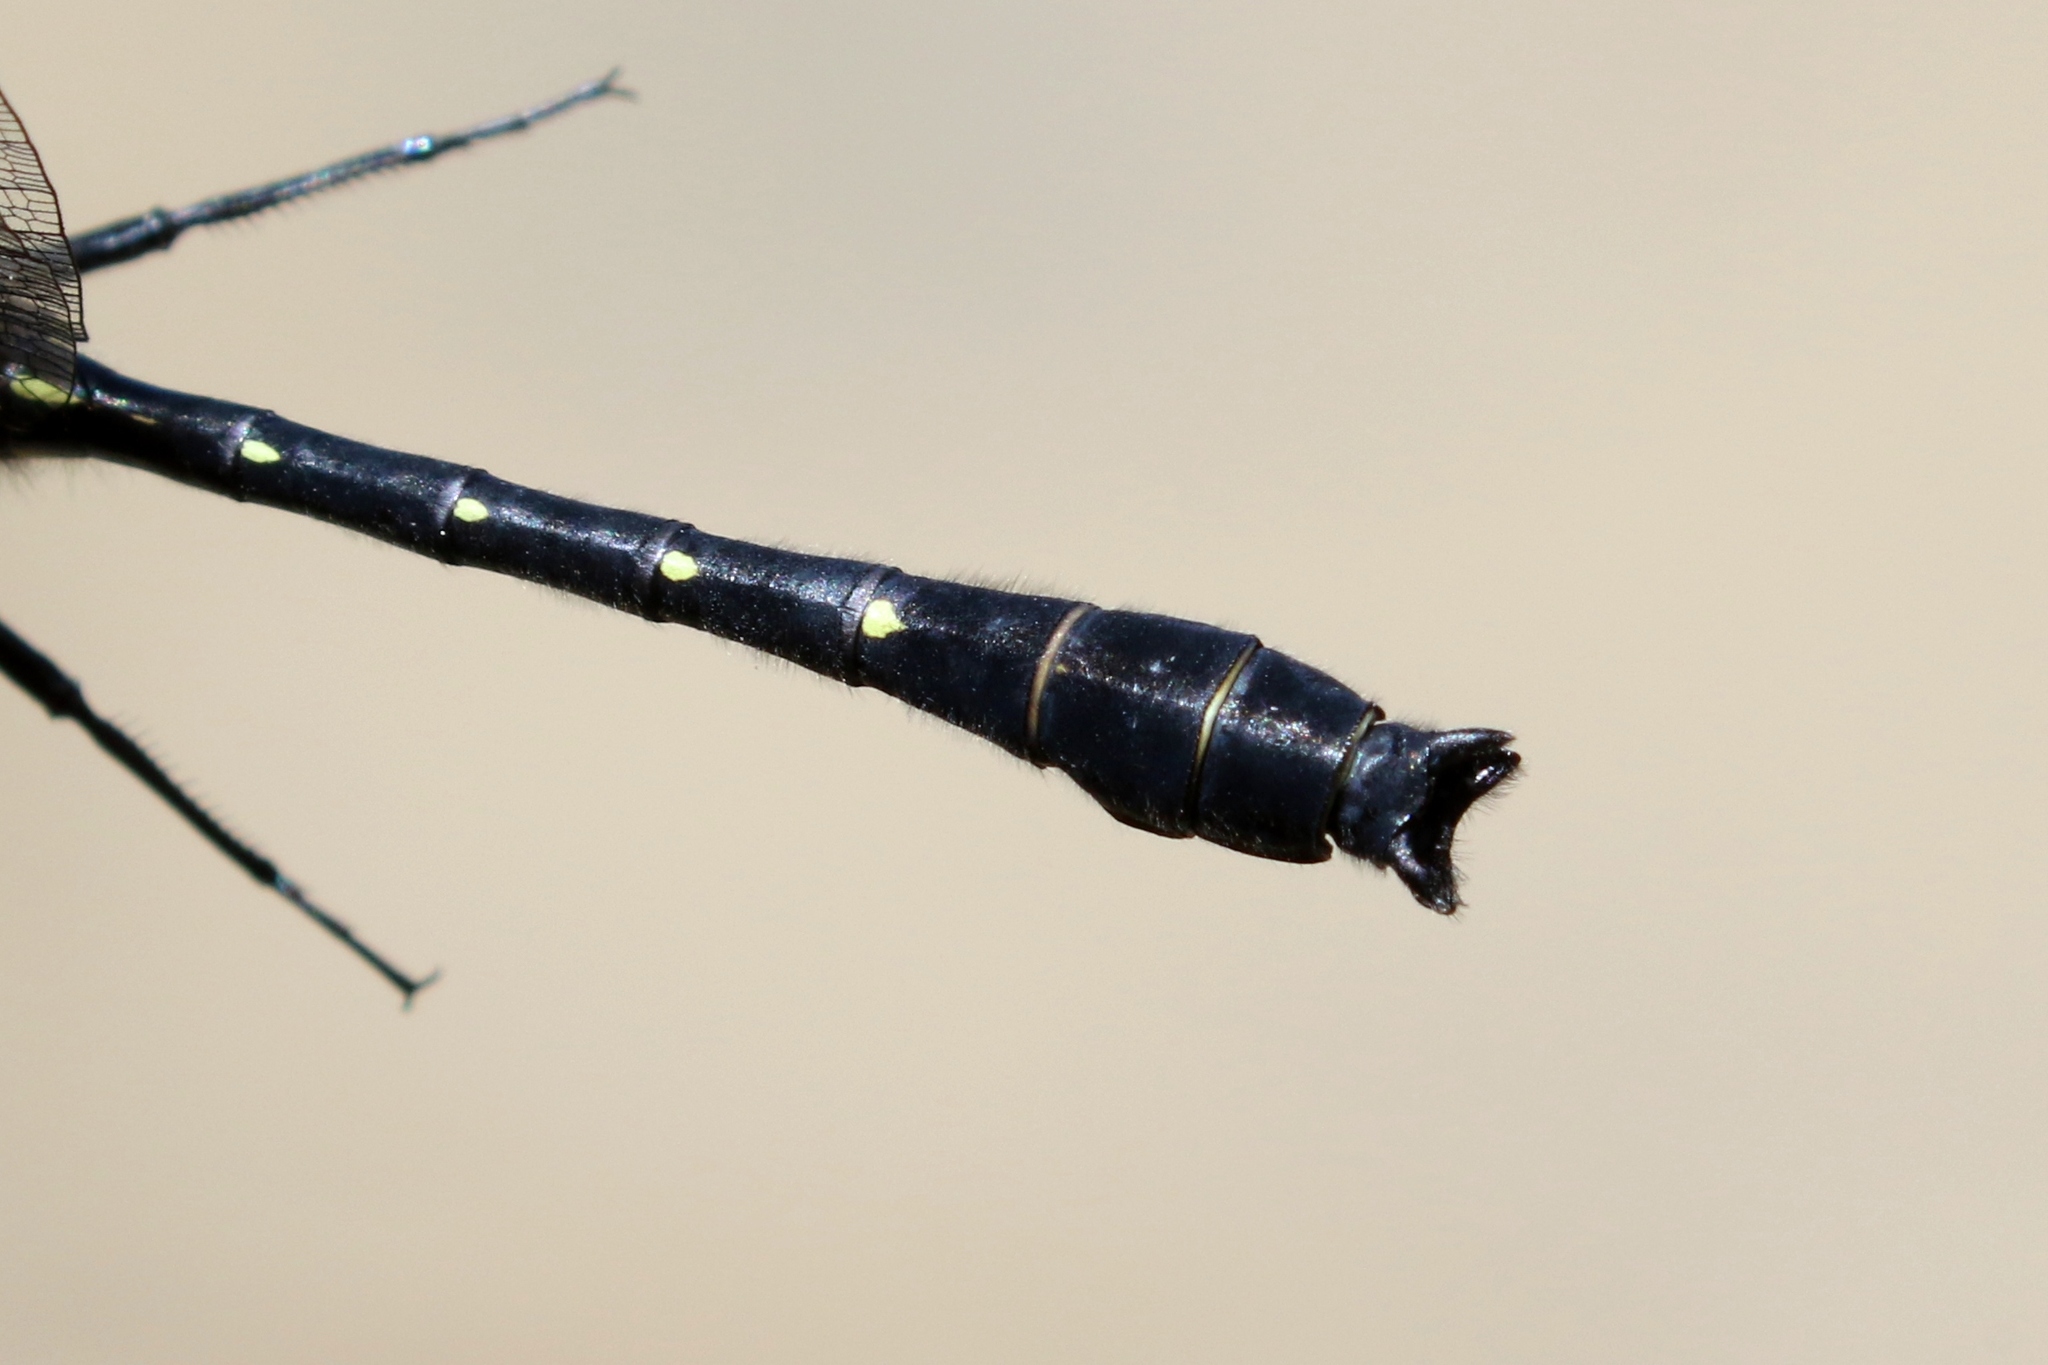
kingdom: Animalia
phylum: Arthropoda
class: Insecta
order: Odonata
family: Gomphidae
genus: Hylogomphus
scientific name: Hylogomphus adelphus
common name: Mustached clubtail
